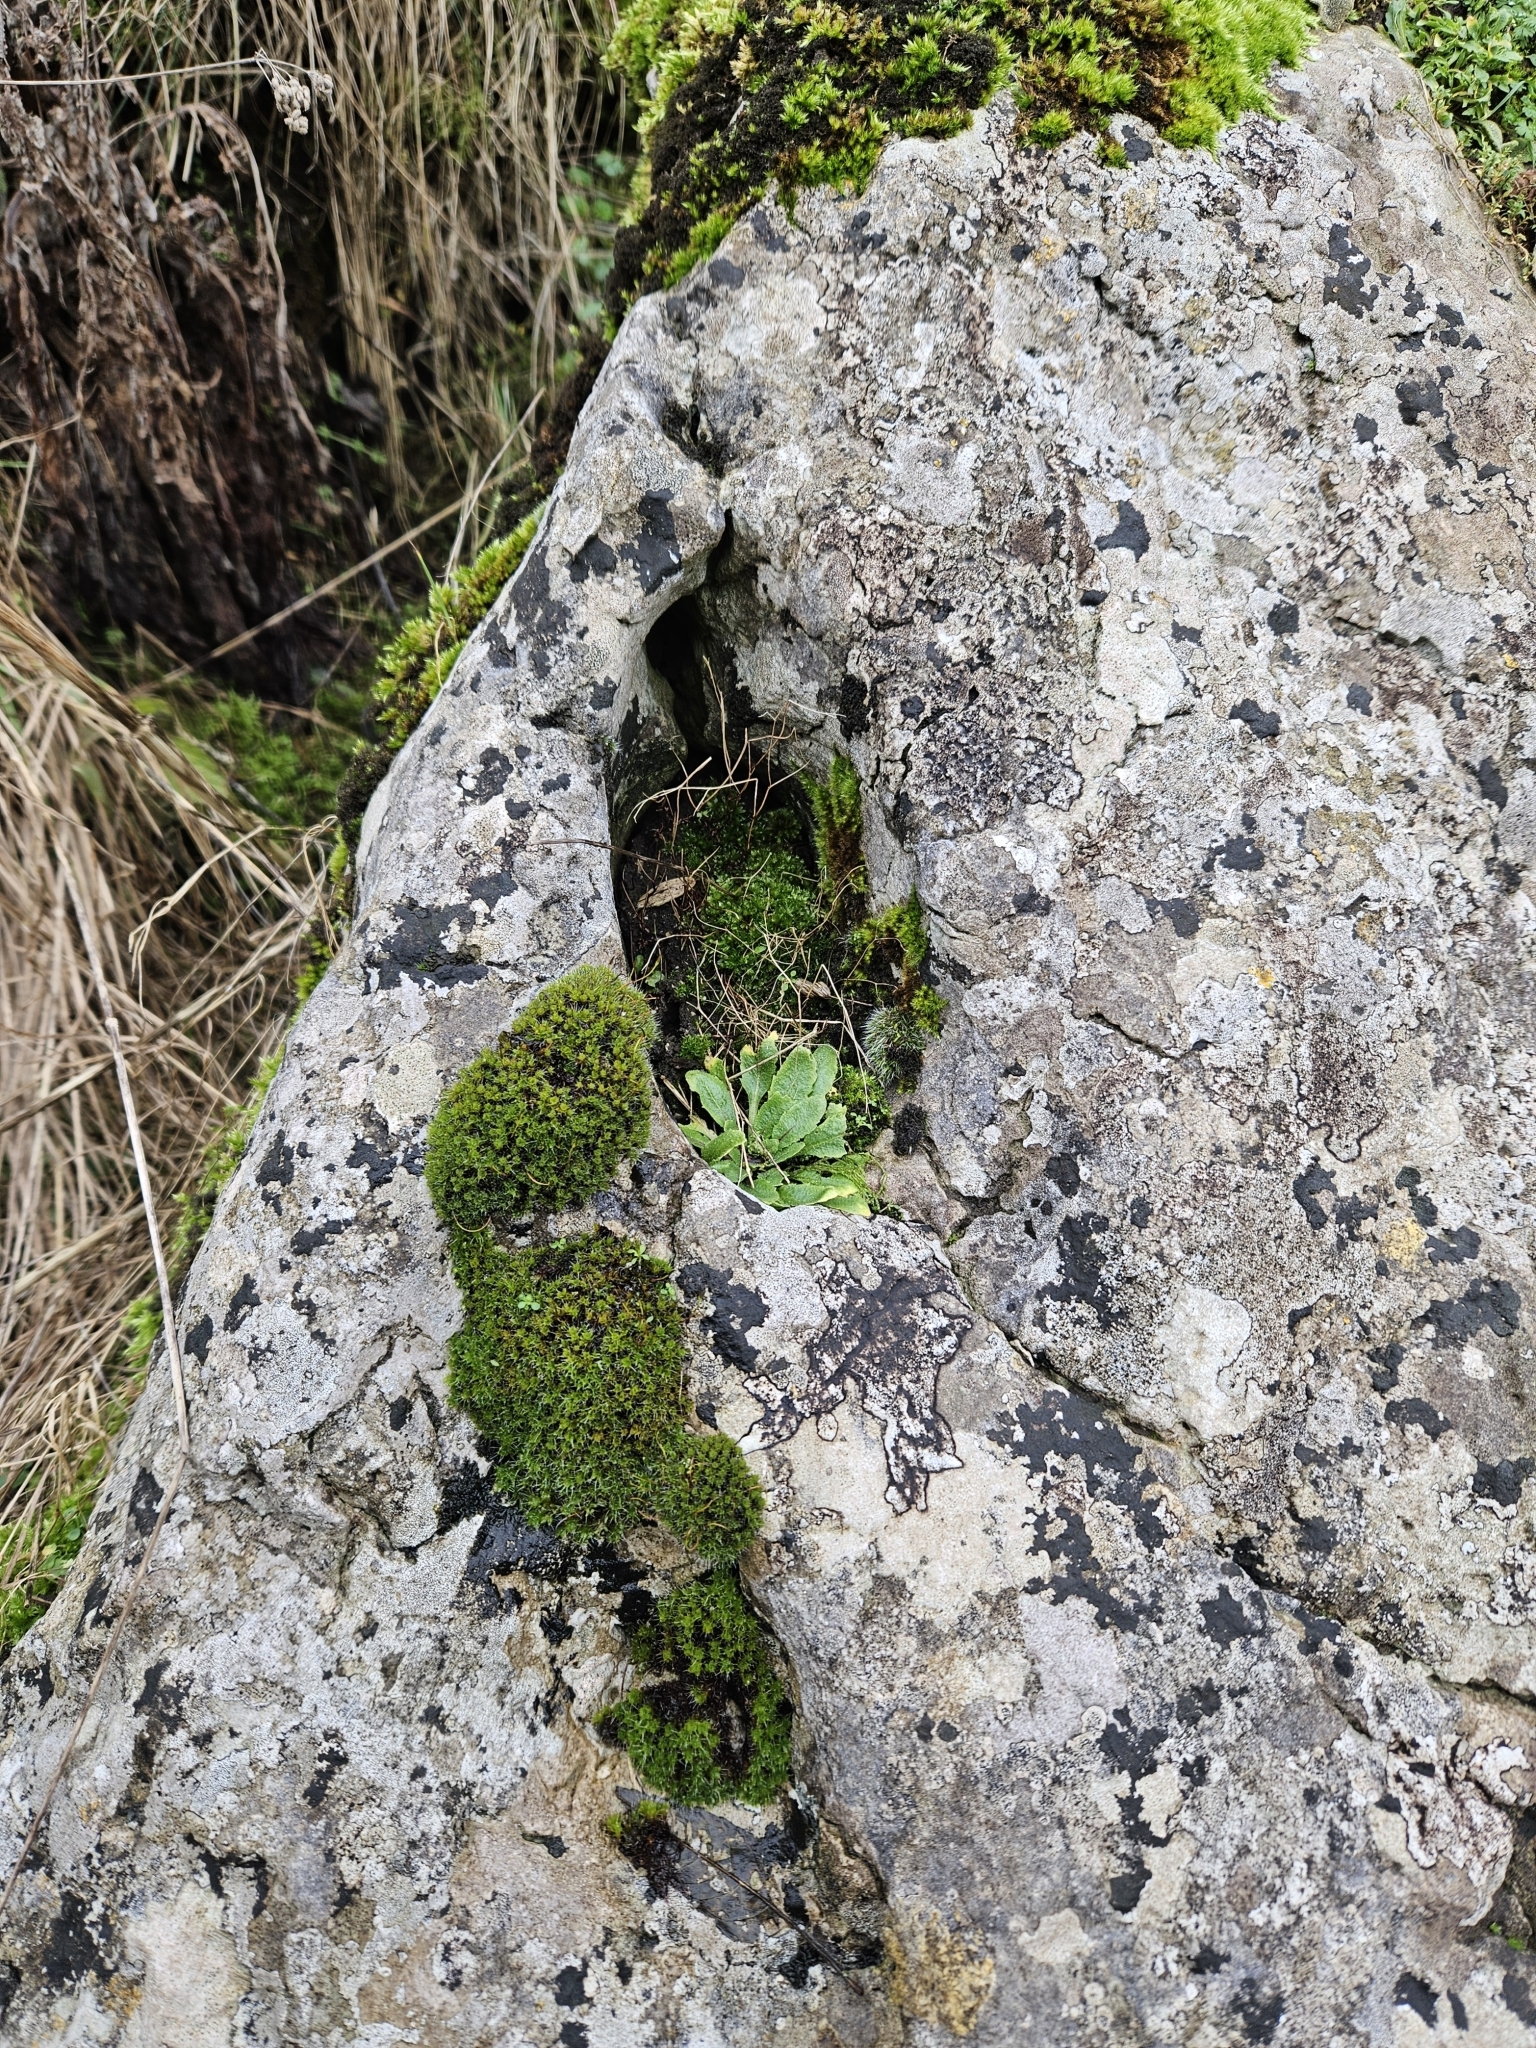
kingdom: Plantae
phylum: Bryophyta
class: Bryopsida
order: Pottiales
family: Pottiaceae
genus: Syntrichia
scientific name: Syntrichia montana
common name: Intermediate screw-moss
